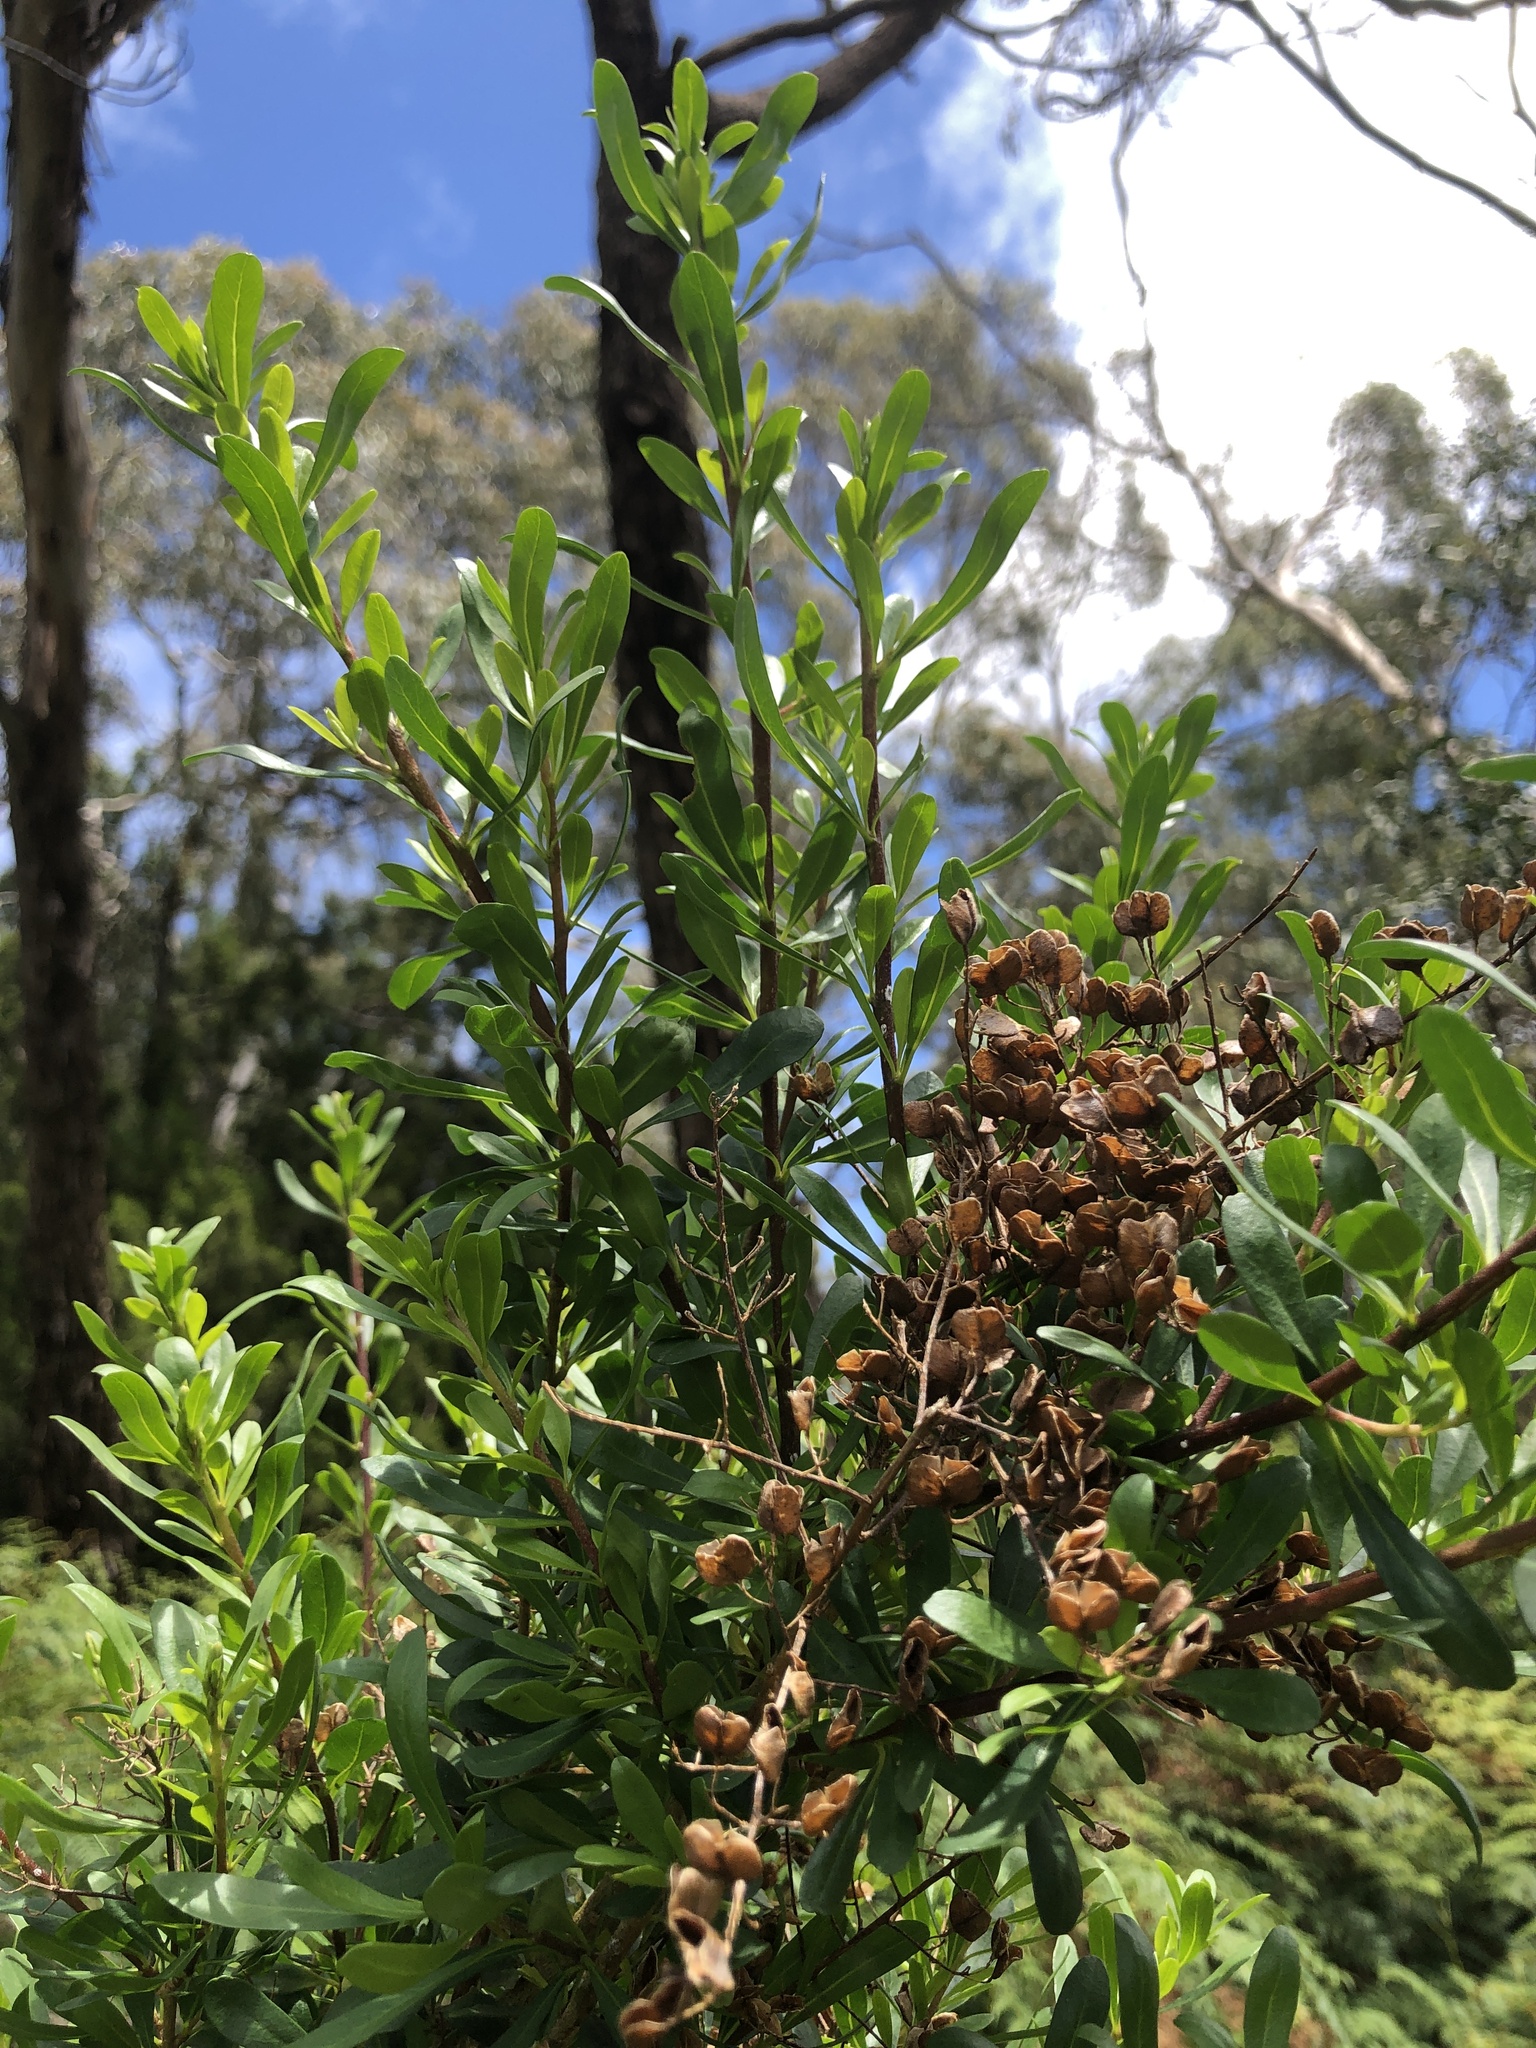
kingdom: Plantae
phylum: Tracheophyta
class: Magnoliopsida
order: Apiales
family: Pittosporaceae
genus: Bursaria
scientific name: Bursaria spinosa
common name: Australian blackthorn
